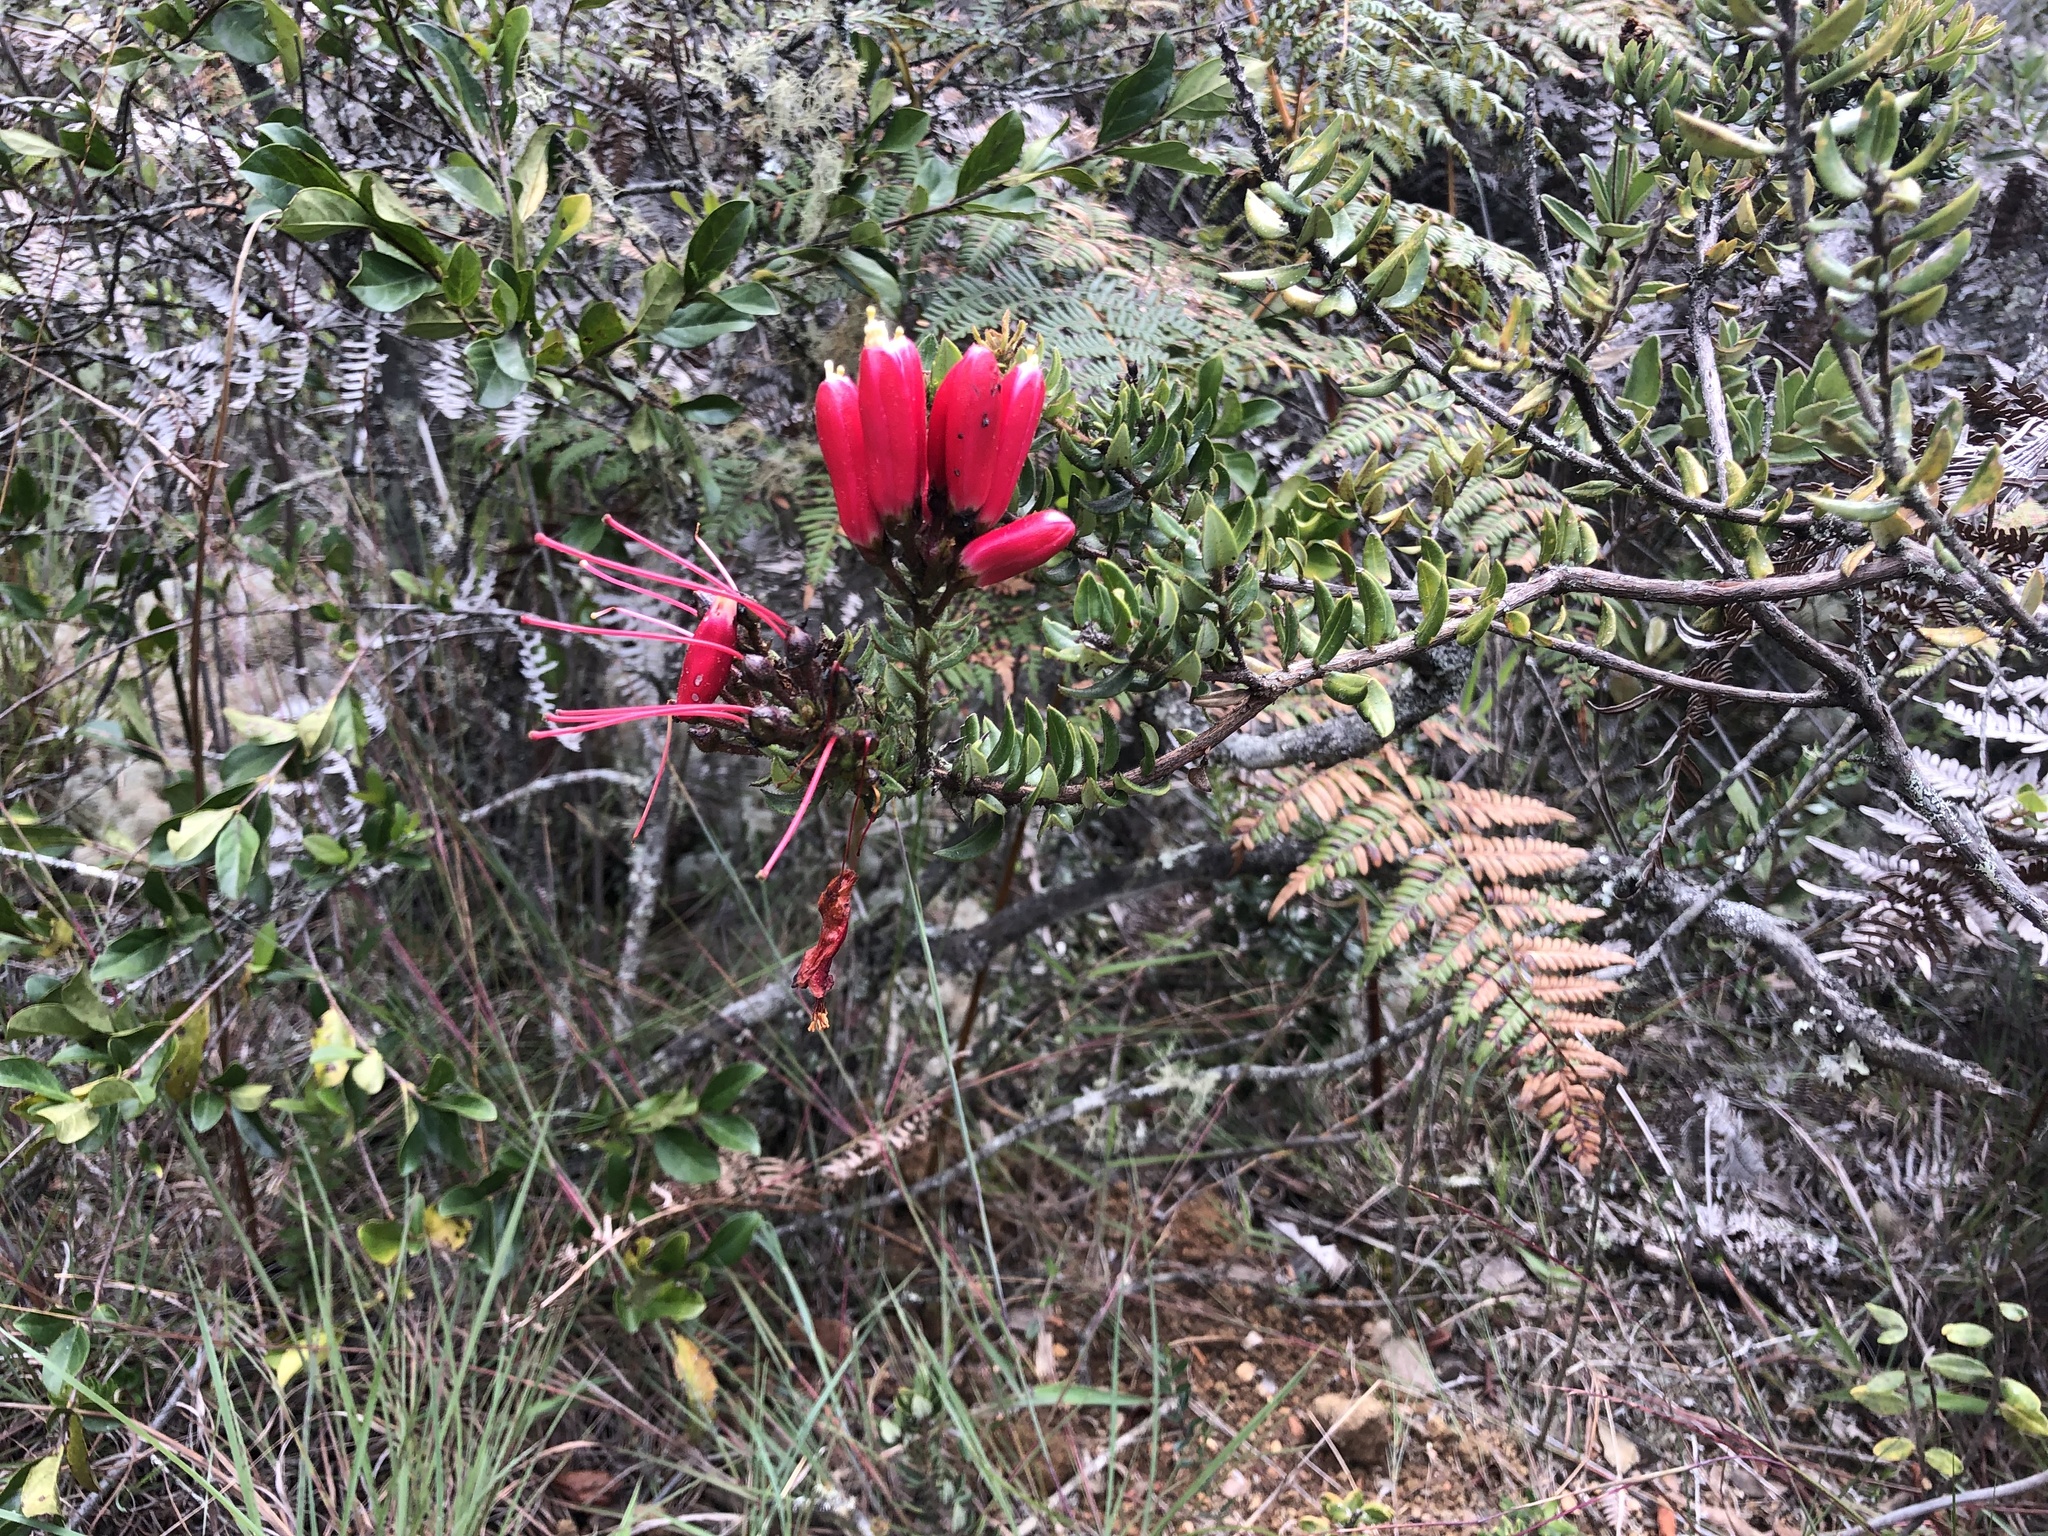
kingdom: Plantae
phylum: Tracheophyta
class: Magnoliopsida
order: Ericales
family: Ericaceae
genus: Bejaria
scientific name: Bejaria resinosa
